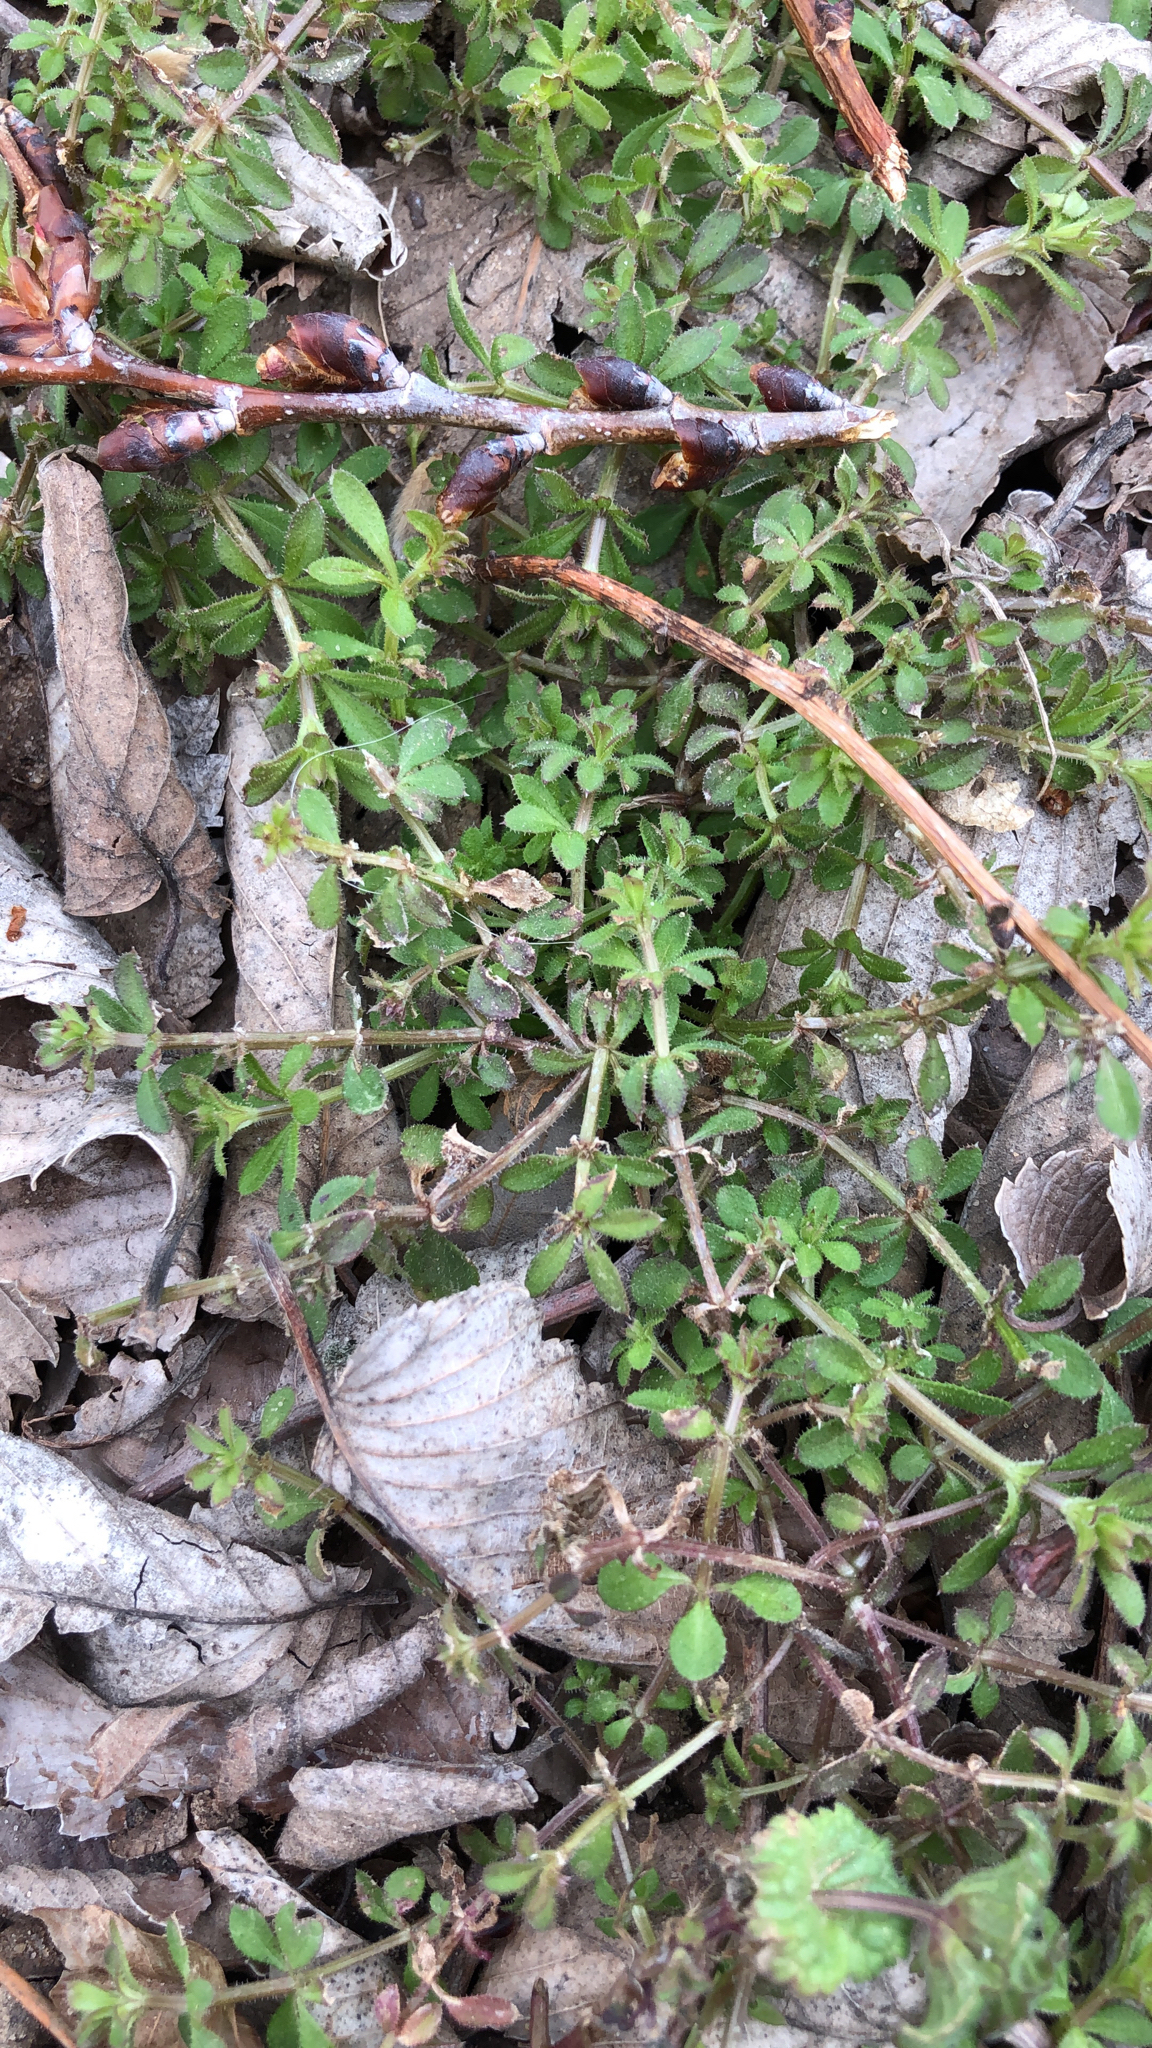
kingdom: Plantae
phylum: Tracheophyta
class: Magnoliopsida
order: Gentianales
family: Rubiaceae
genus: Galium
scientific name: Galium aparine
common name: Cleavers
